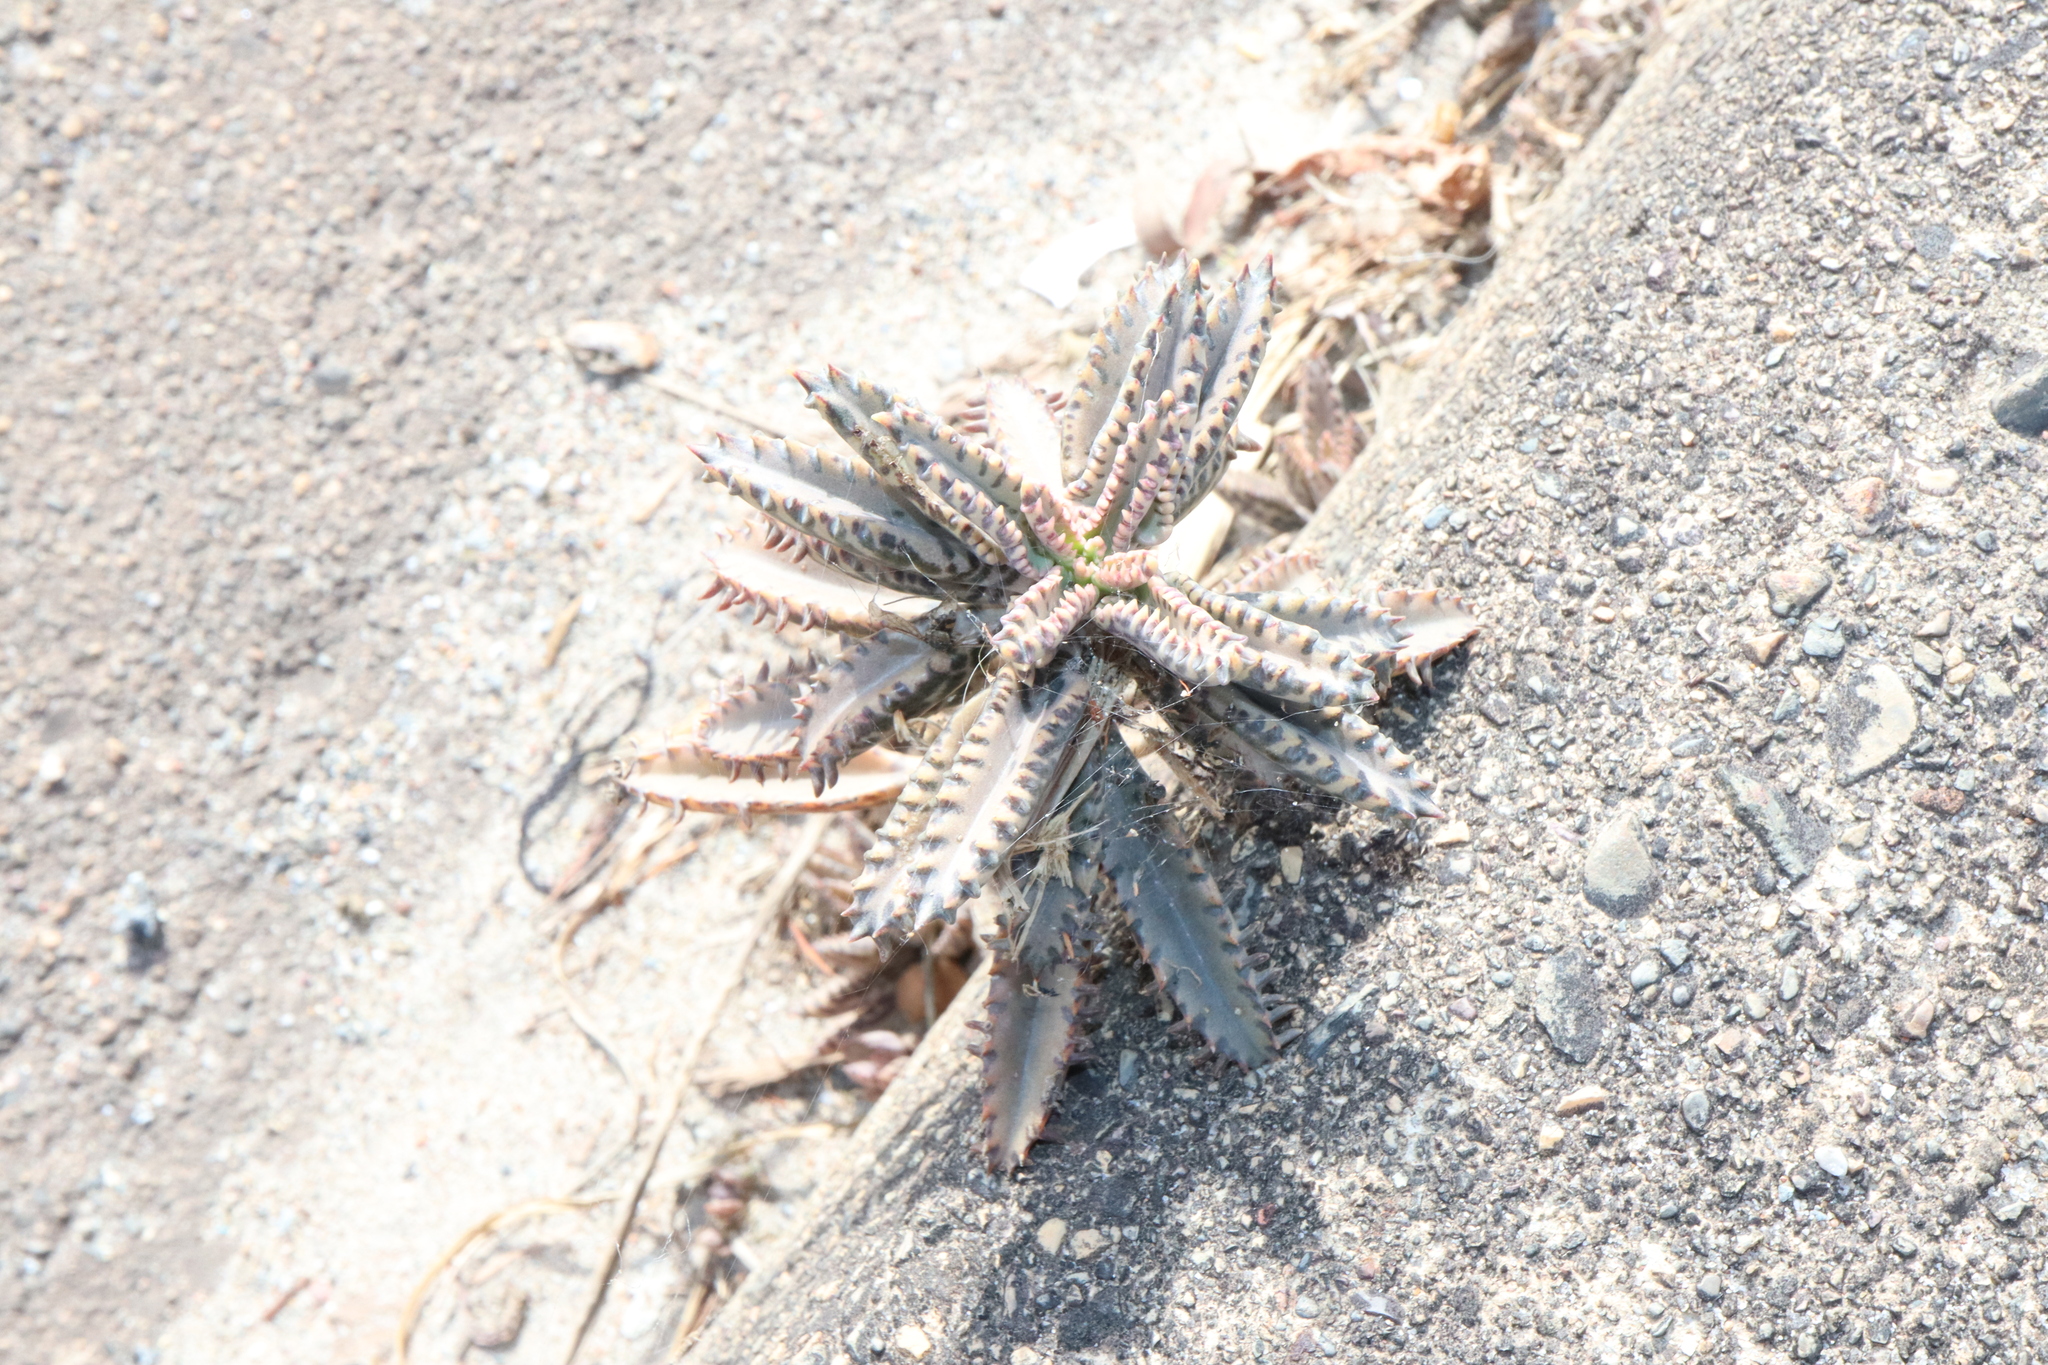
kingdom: Plantae
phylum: Tracheophyta
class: Magnoliopsida
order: Saxifragales
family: Crassulaceae
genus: Kalanchoe
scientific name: Kalanchoe houghtonii
